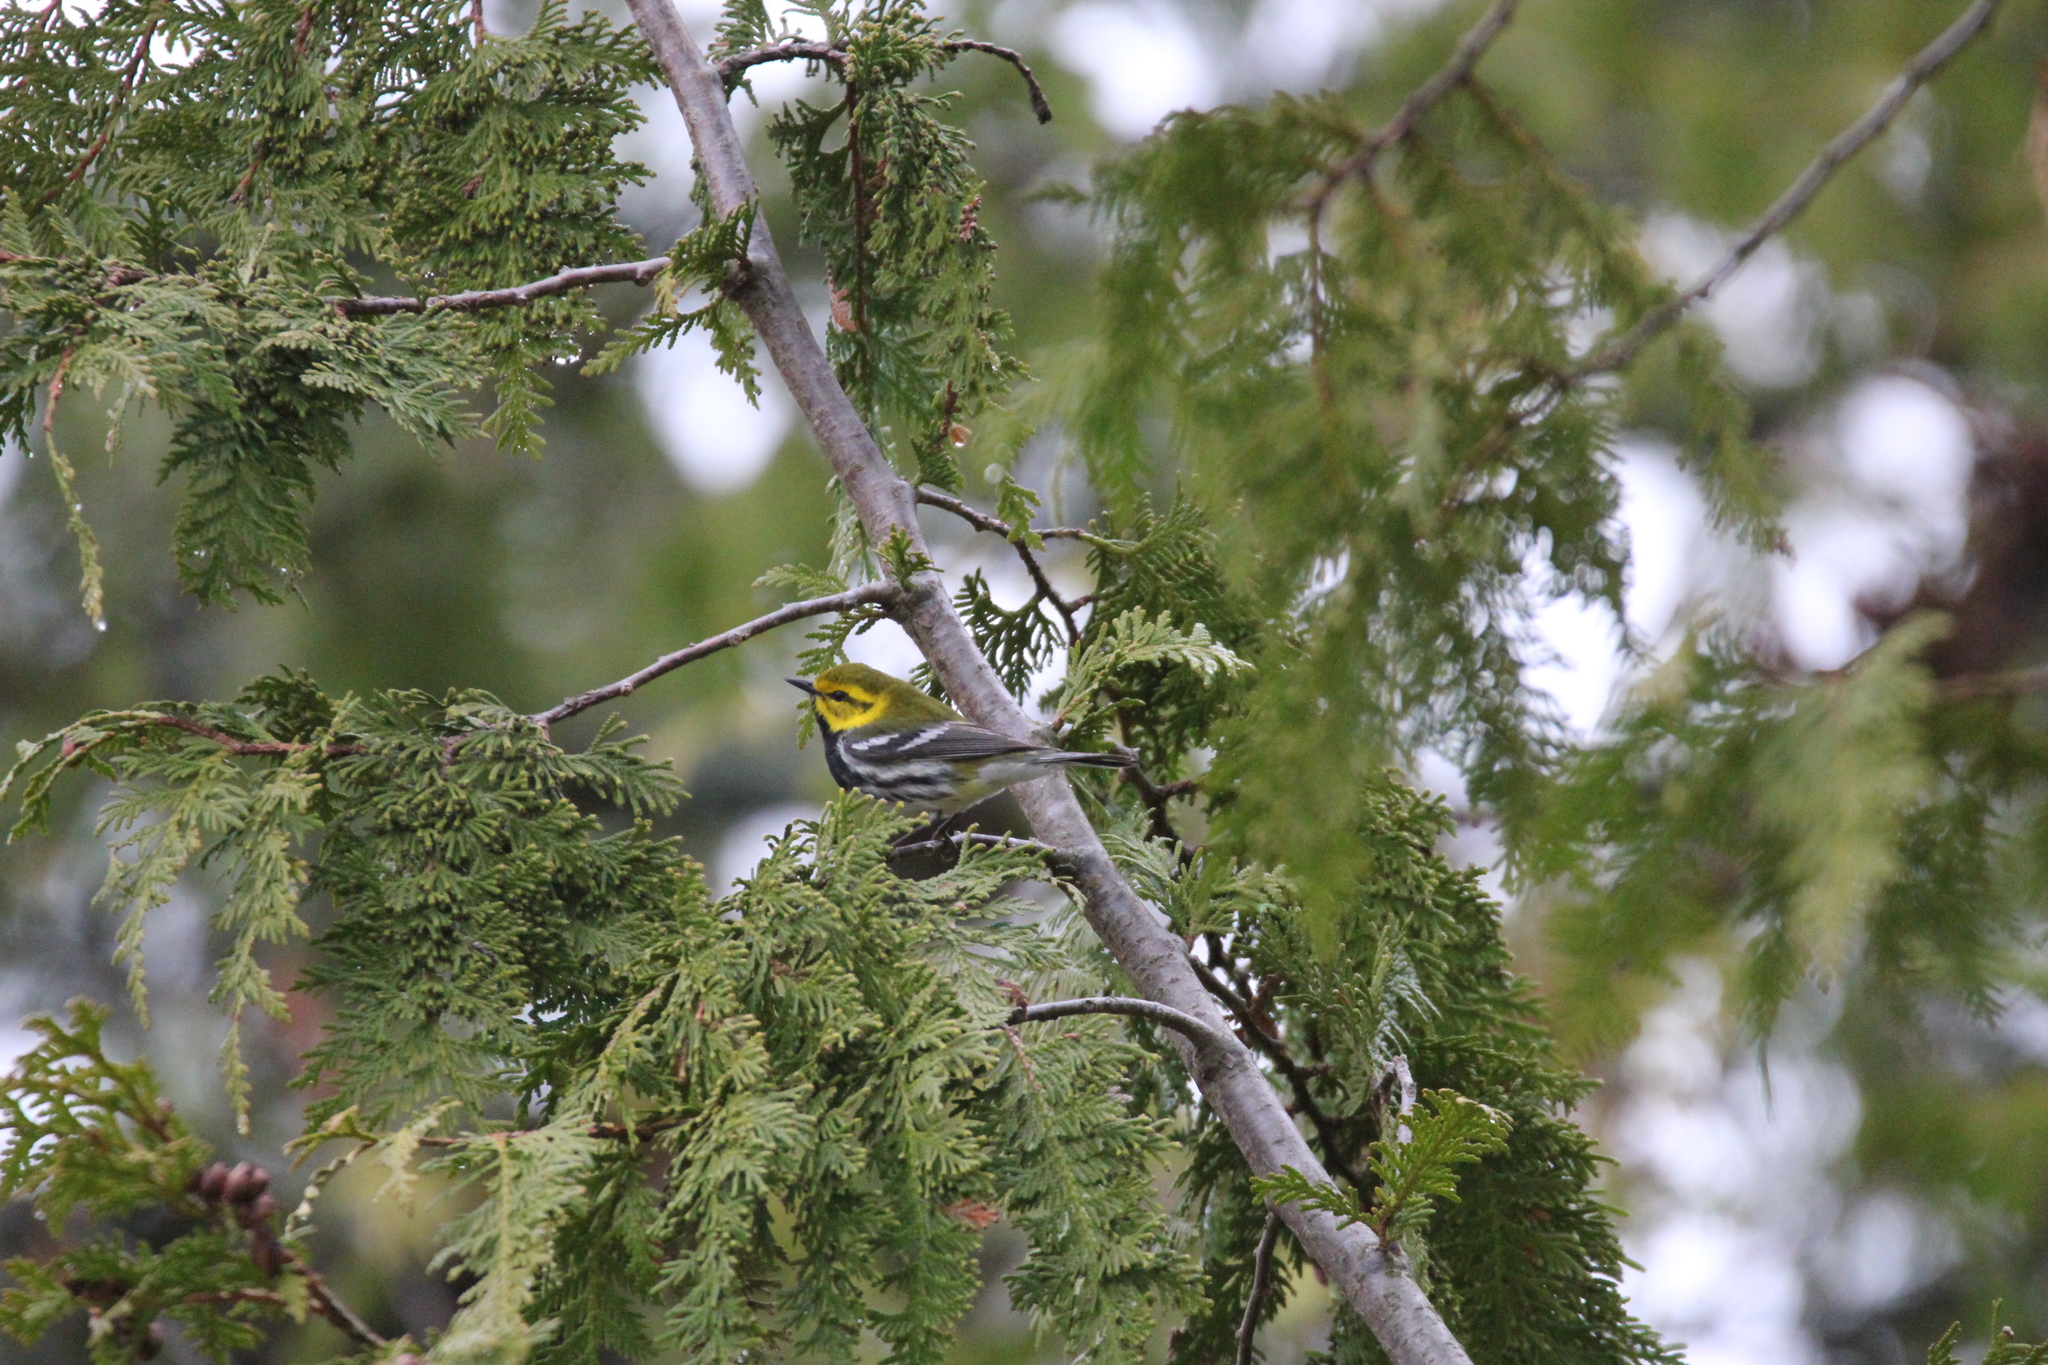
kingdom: Animalia
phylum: Chordata
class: Aves
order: Passeriformes
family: Parulidae
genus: Setophaga
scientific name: Setophaga virens
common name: Black-throated green warbler
